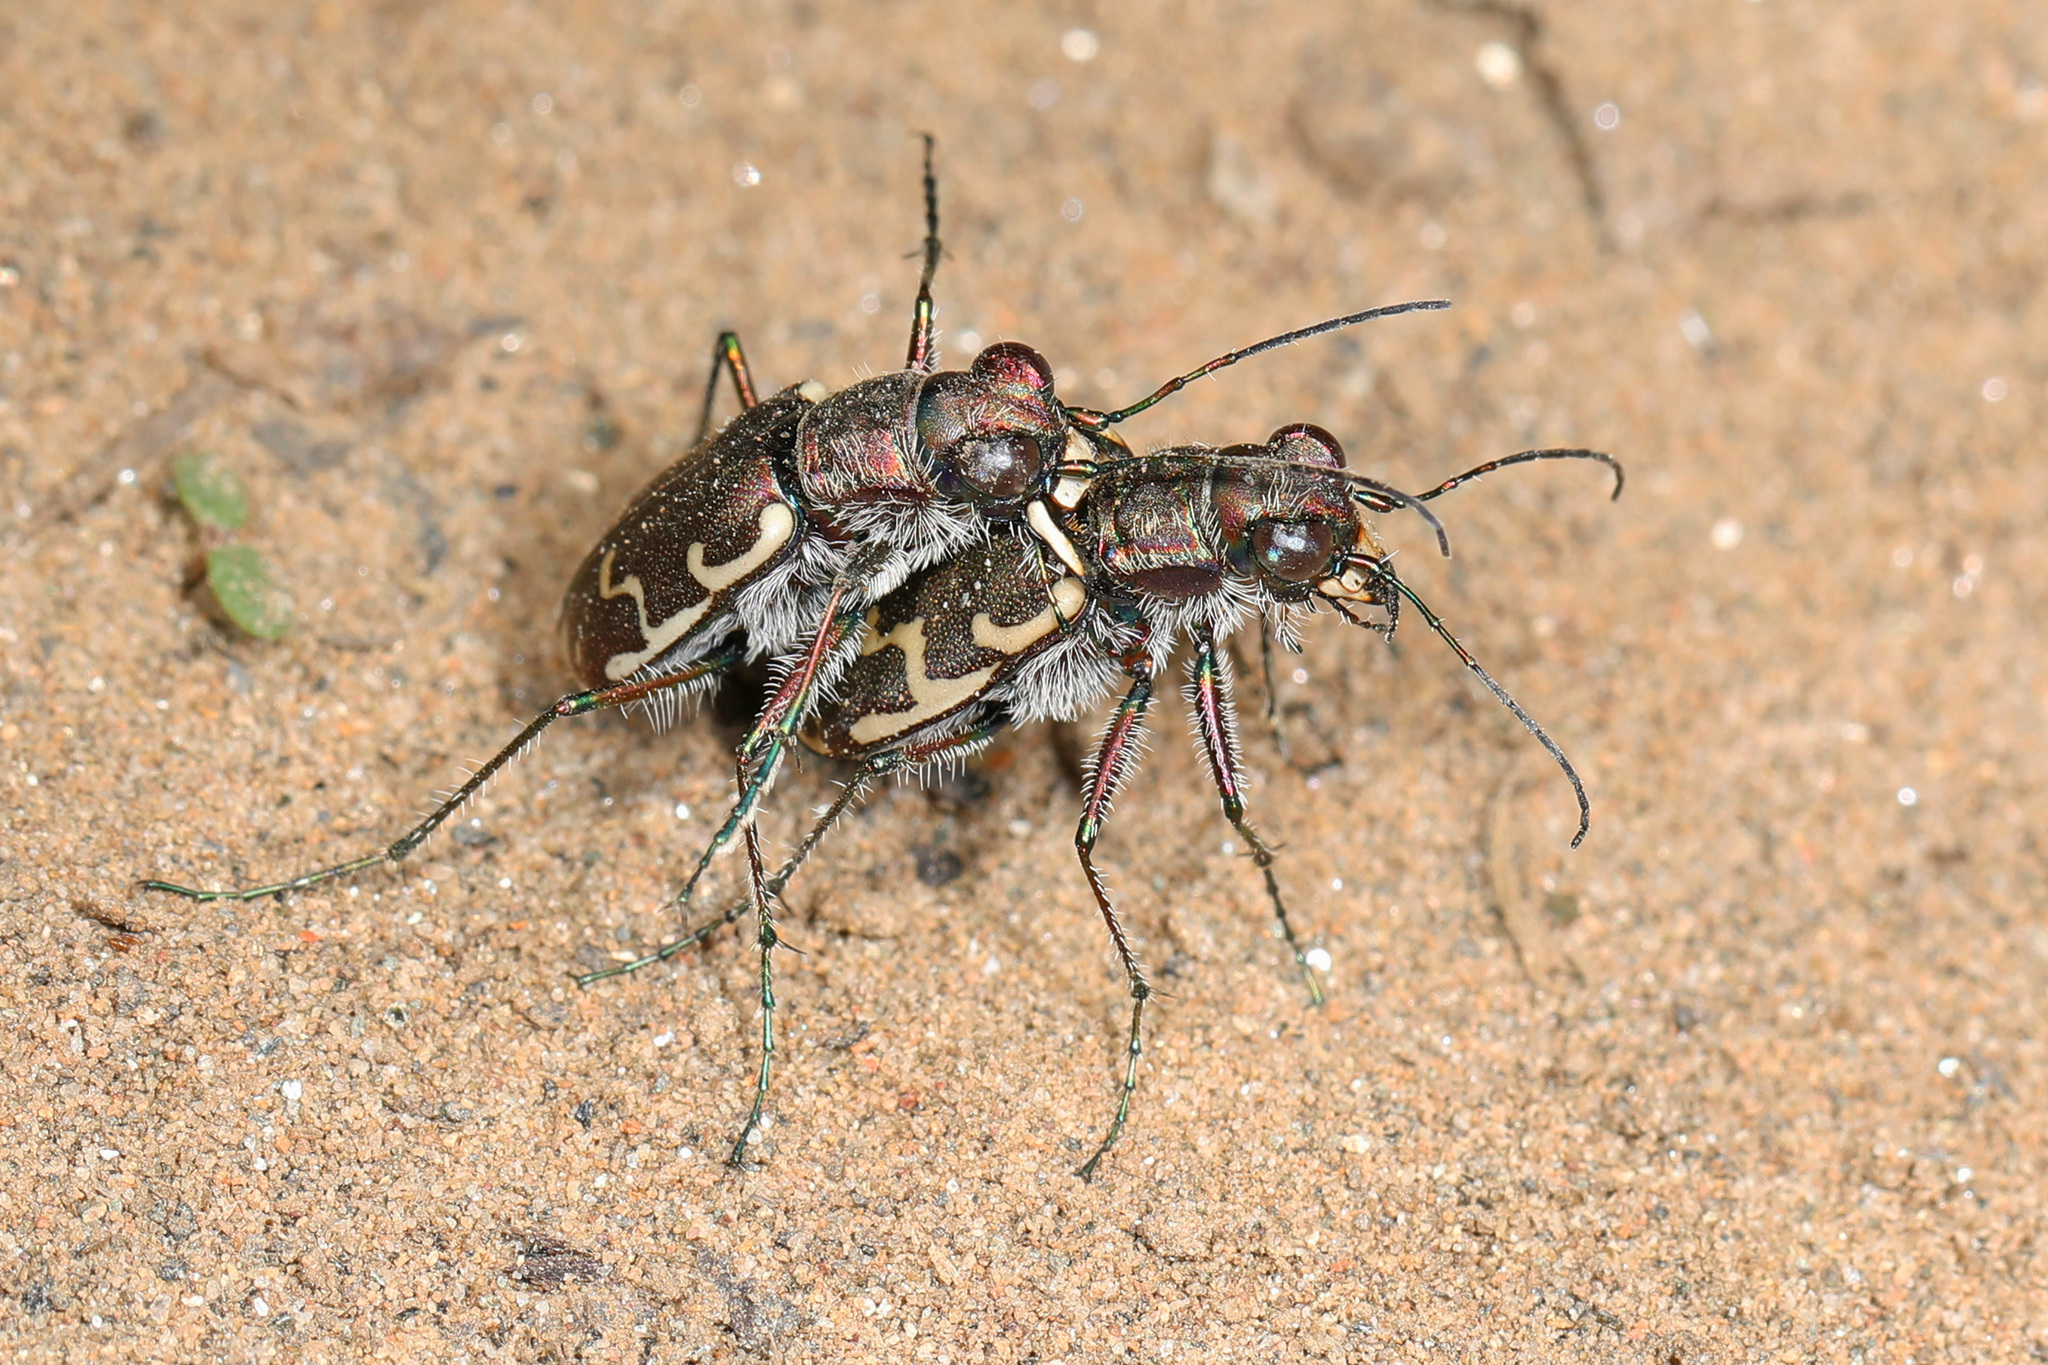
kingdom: Animalia
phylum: Arthropoda
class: Insecta
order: Coleoptera
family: Carabidae
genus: Cicindela
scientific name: Cicindela repanda
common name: Bronzed tiger beetle
